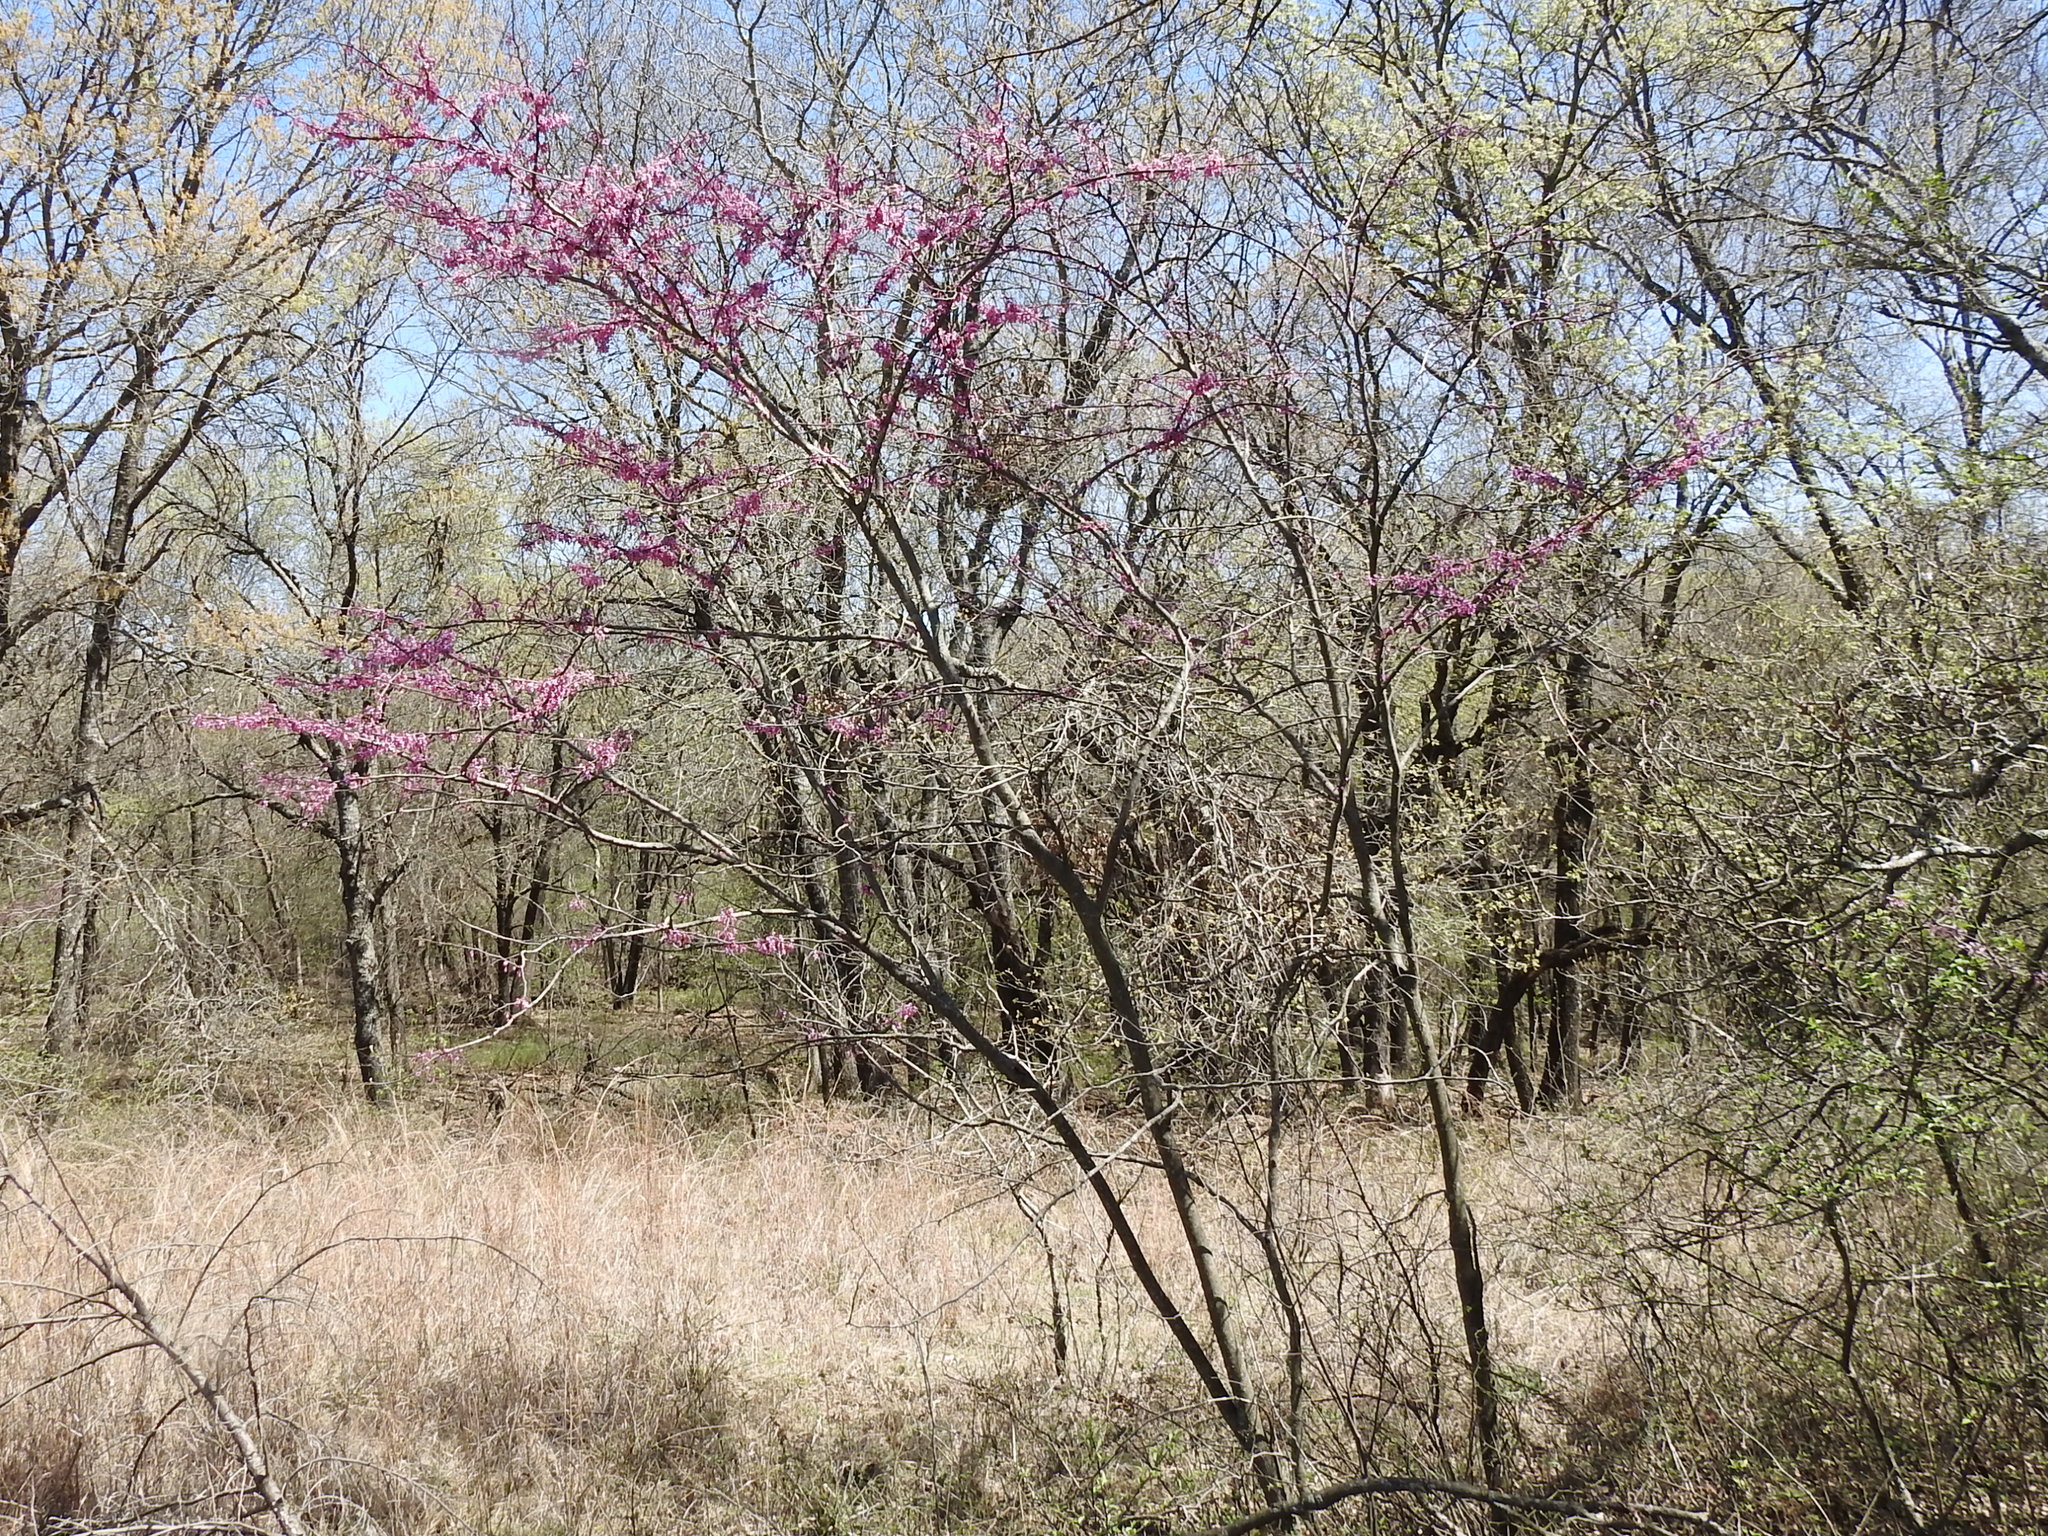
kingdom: Plantae
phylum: Tracheophyta
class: Magnoliopsida
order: Fabales
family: Fabaceae
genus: Cercis
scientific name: Cercis canadensis
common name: Eastern redbud
